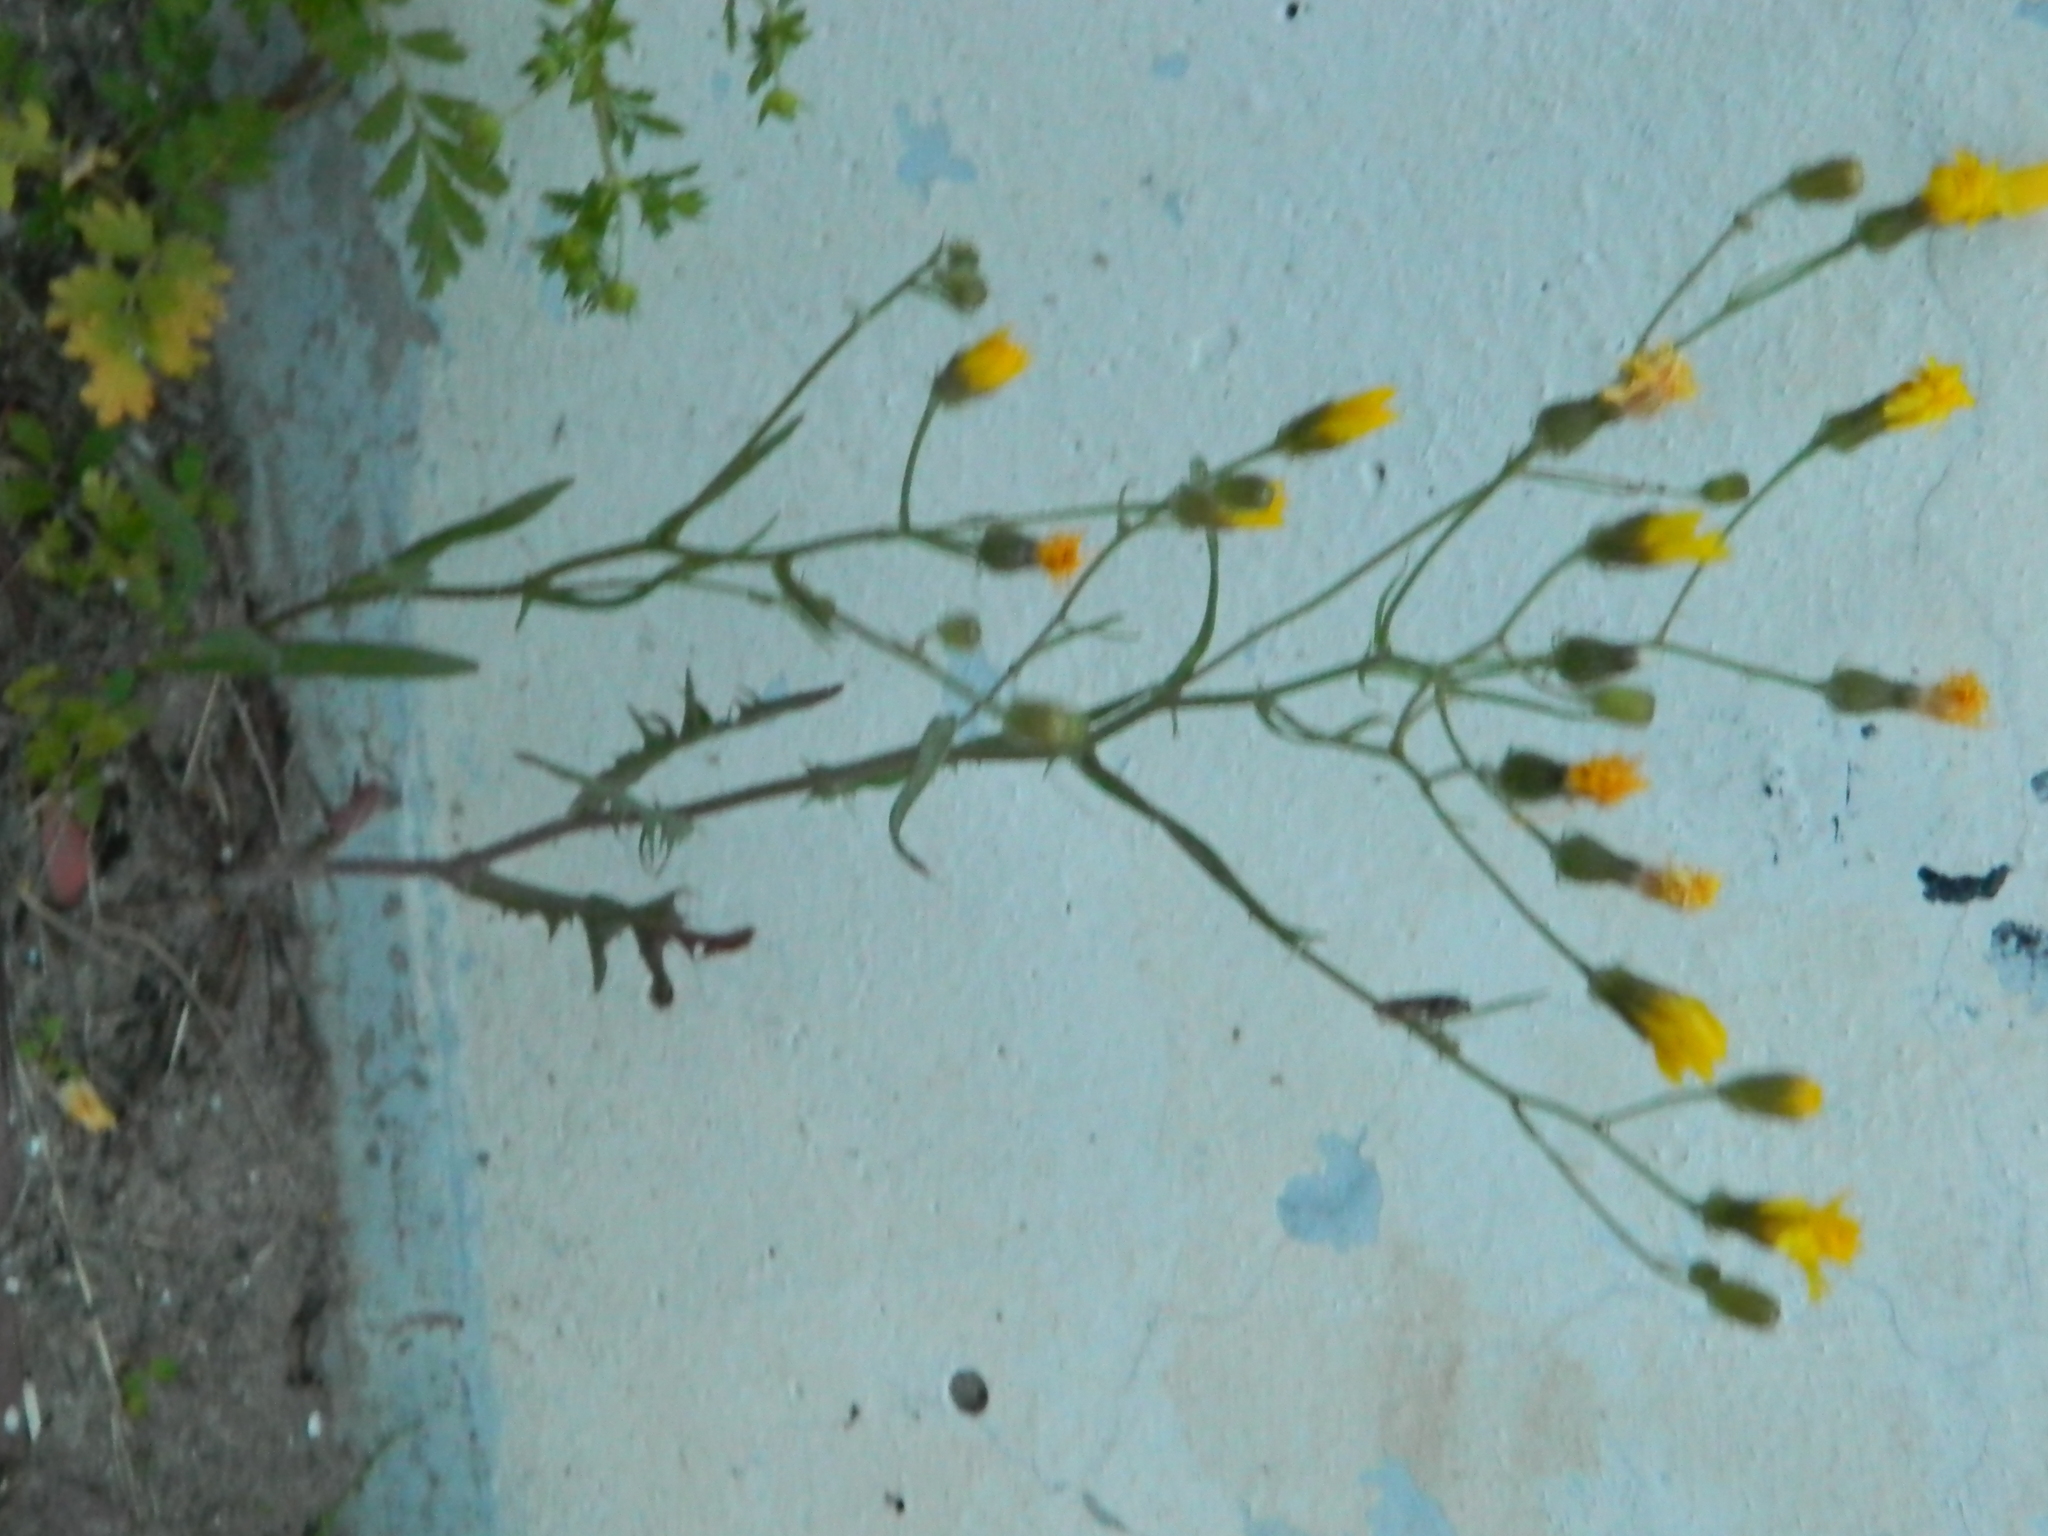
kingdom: Plantae
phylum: Tracheophyta
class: Magnoliopsida
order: Asterales
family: Asteraceae
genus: Crepis
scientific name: Crepis tectorum
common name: Narrow-leaved hawk's-beard
